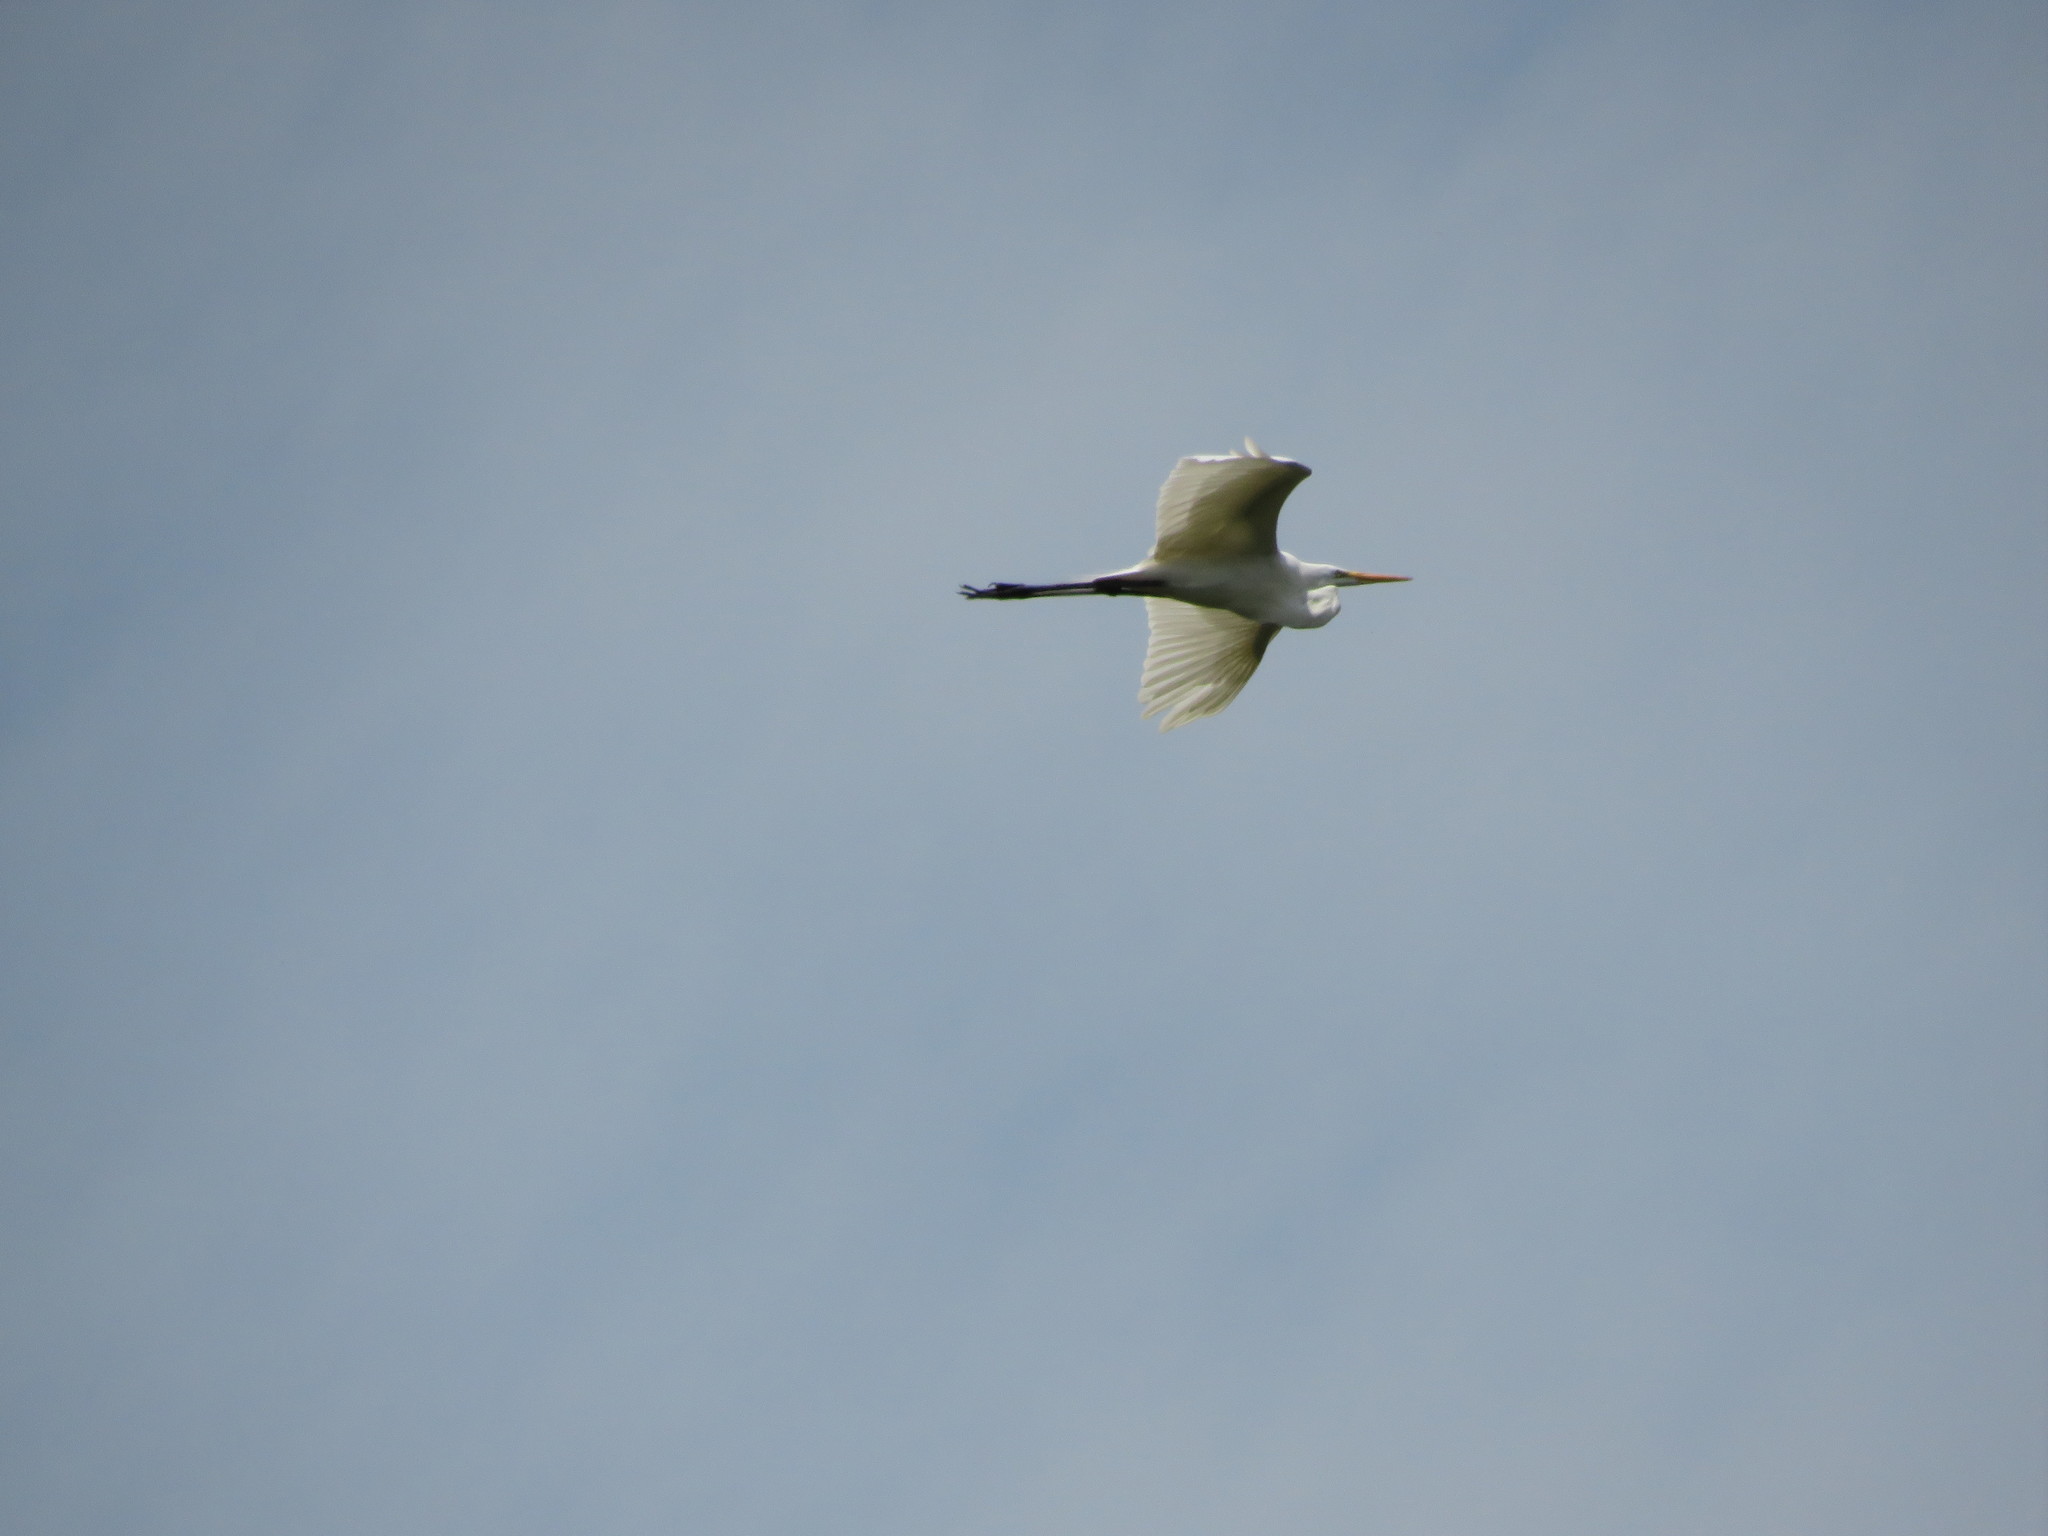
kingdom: Animalia
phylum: Chordata
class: Aves
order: Pelecaniformes
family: Ardeidae
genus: Ardea
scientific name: Ardea alba
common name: Great egret
